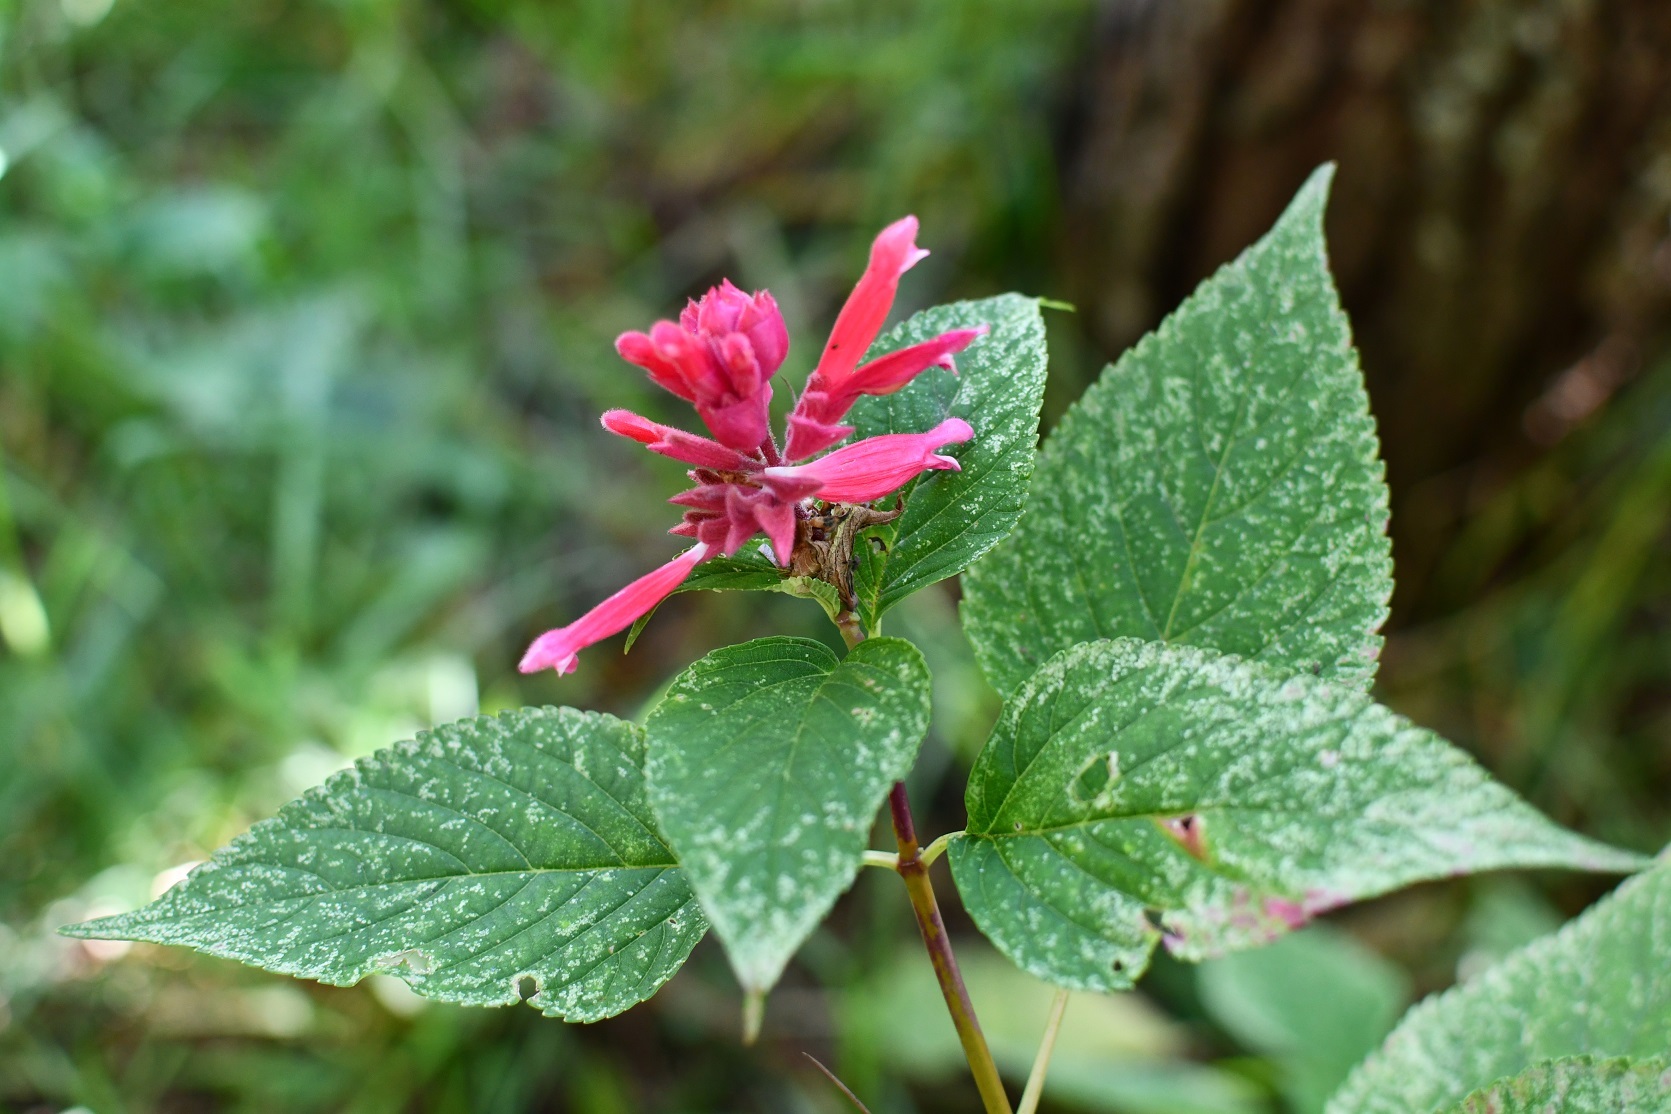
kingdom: Plantae
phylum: Tracheophyta
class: Magnoliopsida
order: Lamiales
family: Lamiaceae
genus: Salvia
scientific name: Salvia wagneriana
